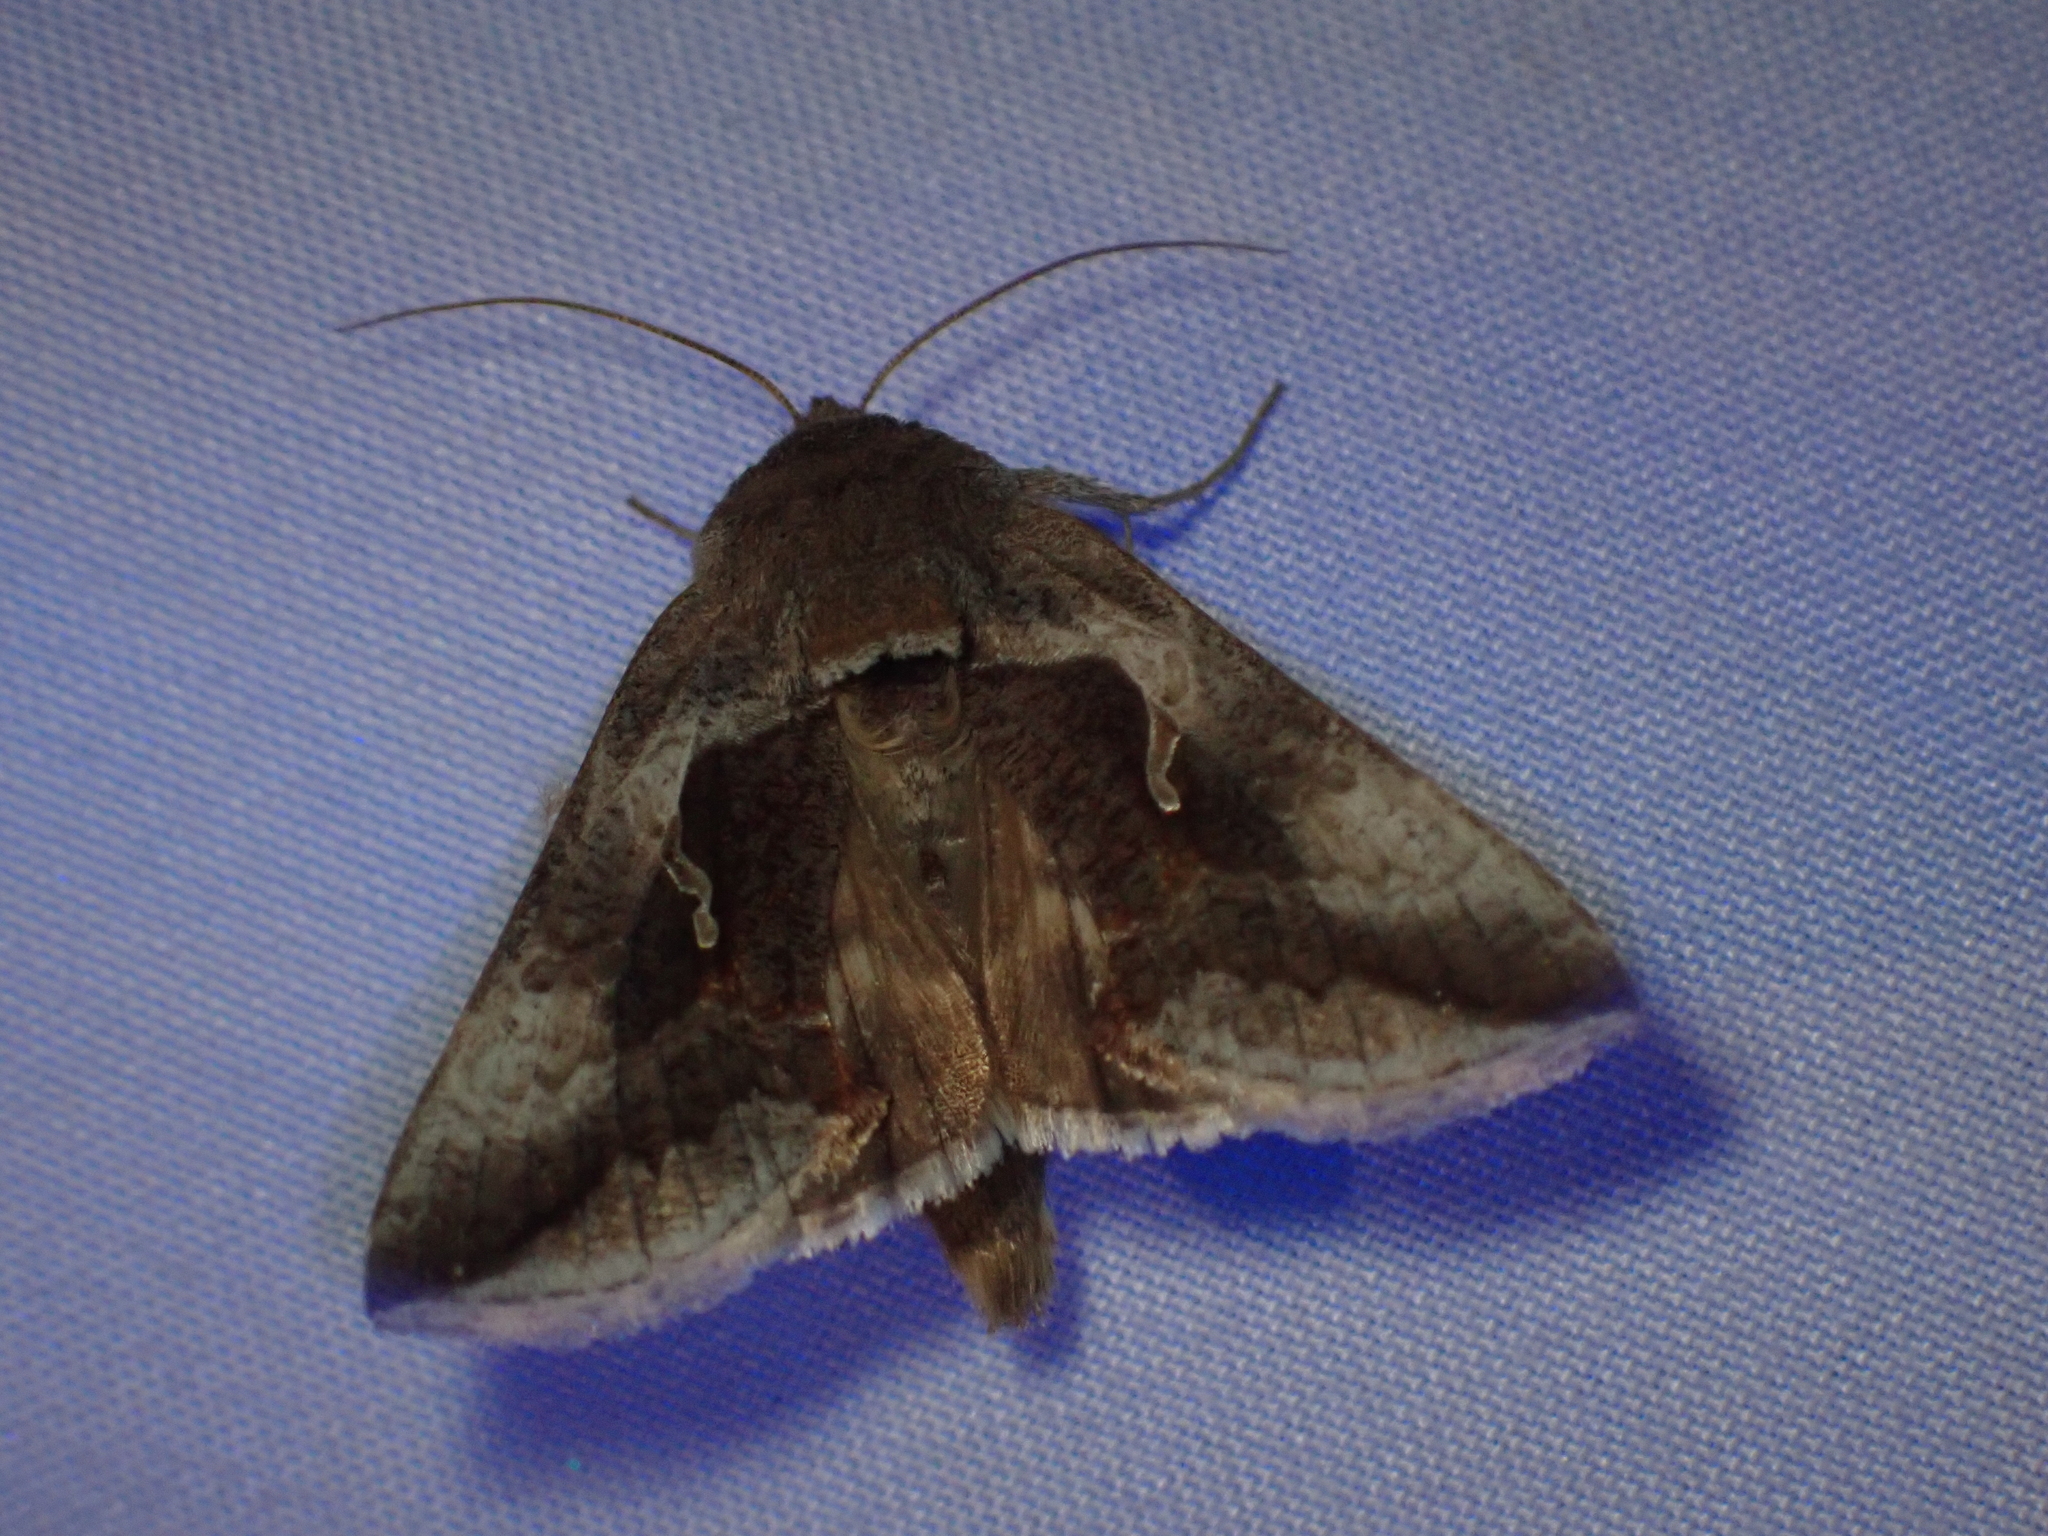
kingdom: Animalia
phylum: Arthropoda
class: Insecta
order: Lepidoptera
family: Noctuidae
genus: Anagrapha
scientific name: Anagrapha falcifera
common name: Celery looper
